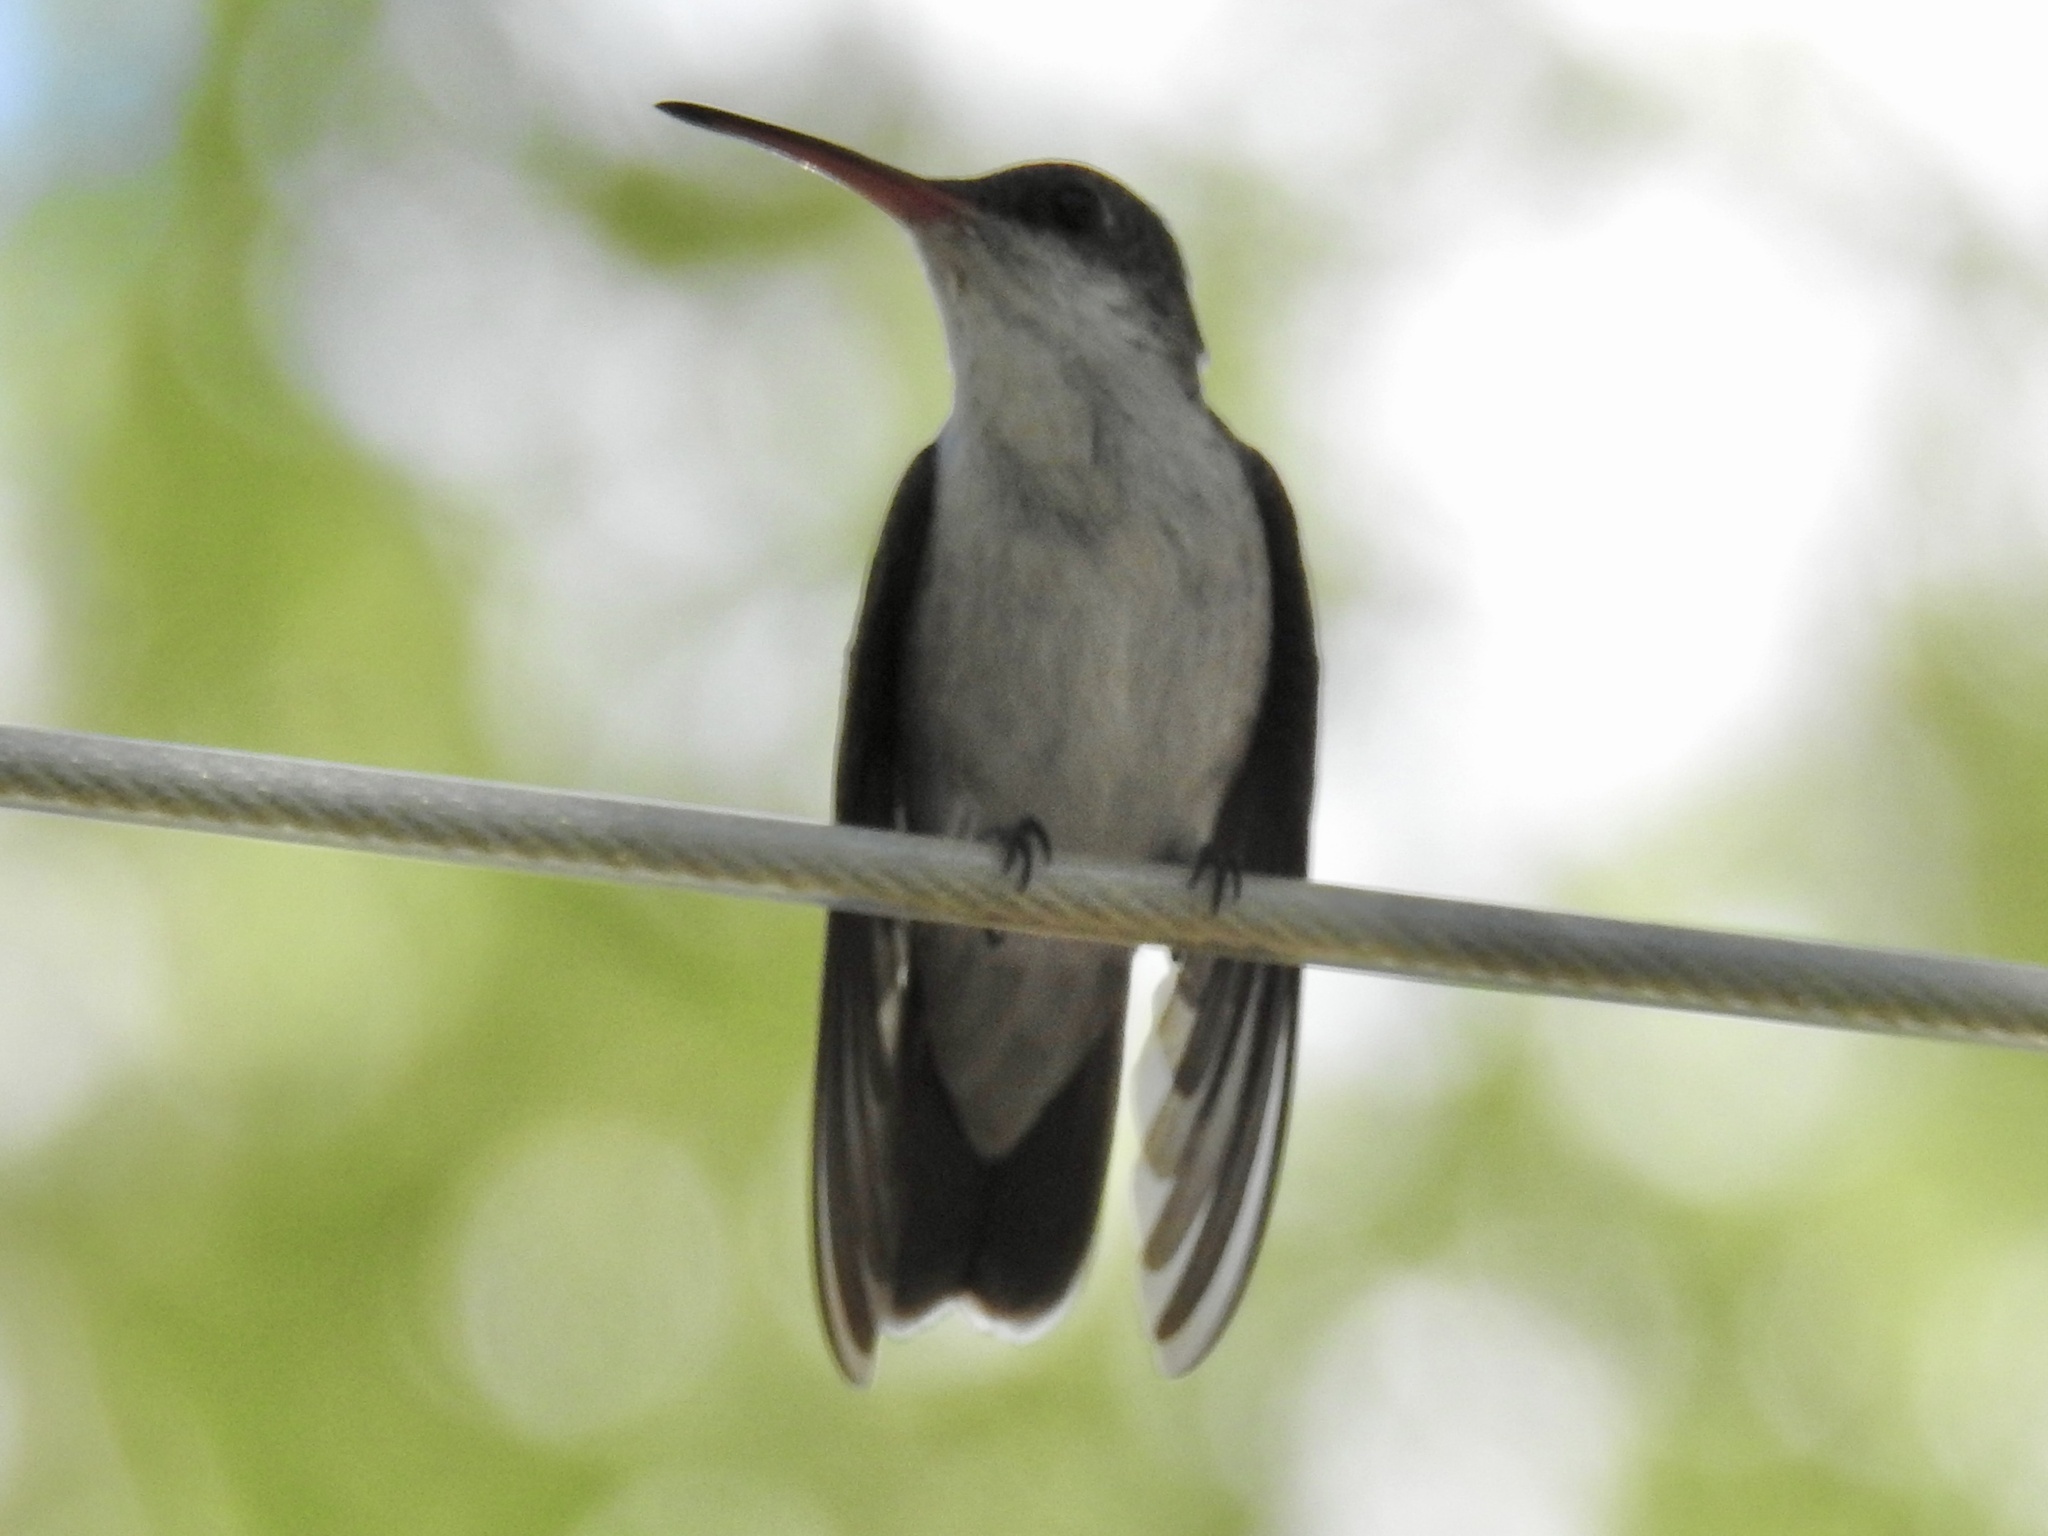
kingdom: Animalia
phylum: Chordata
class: Aves
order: Apodiformes
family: Trochilidae
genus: Leucolia
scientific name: Leucolia violiceps
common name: Violet-crowned hummingbird
